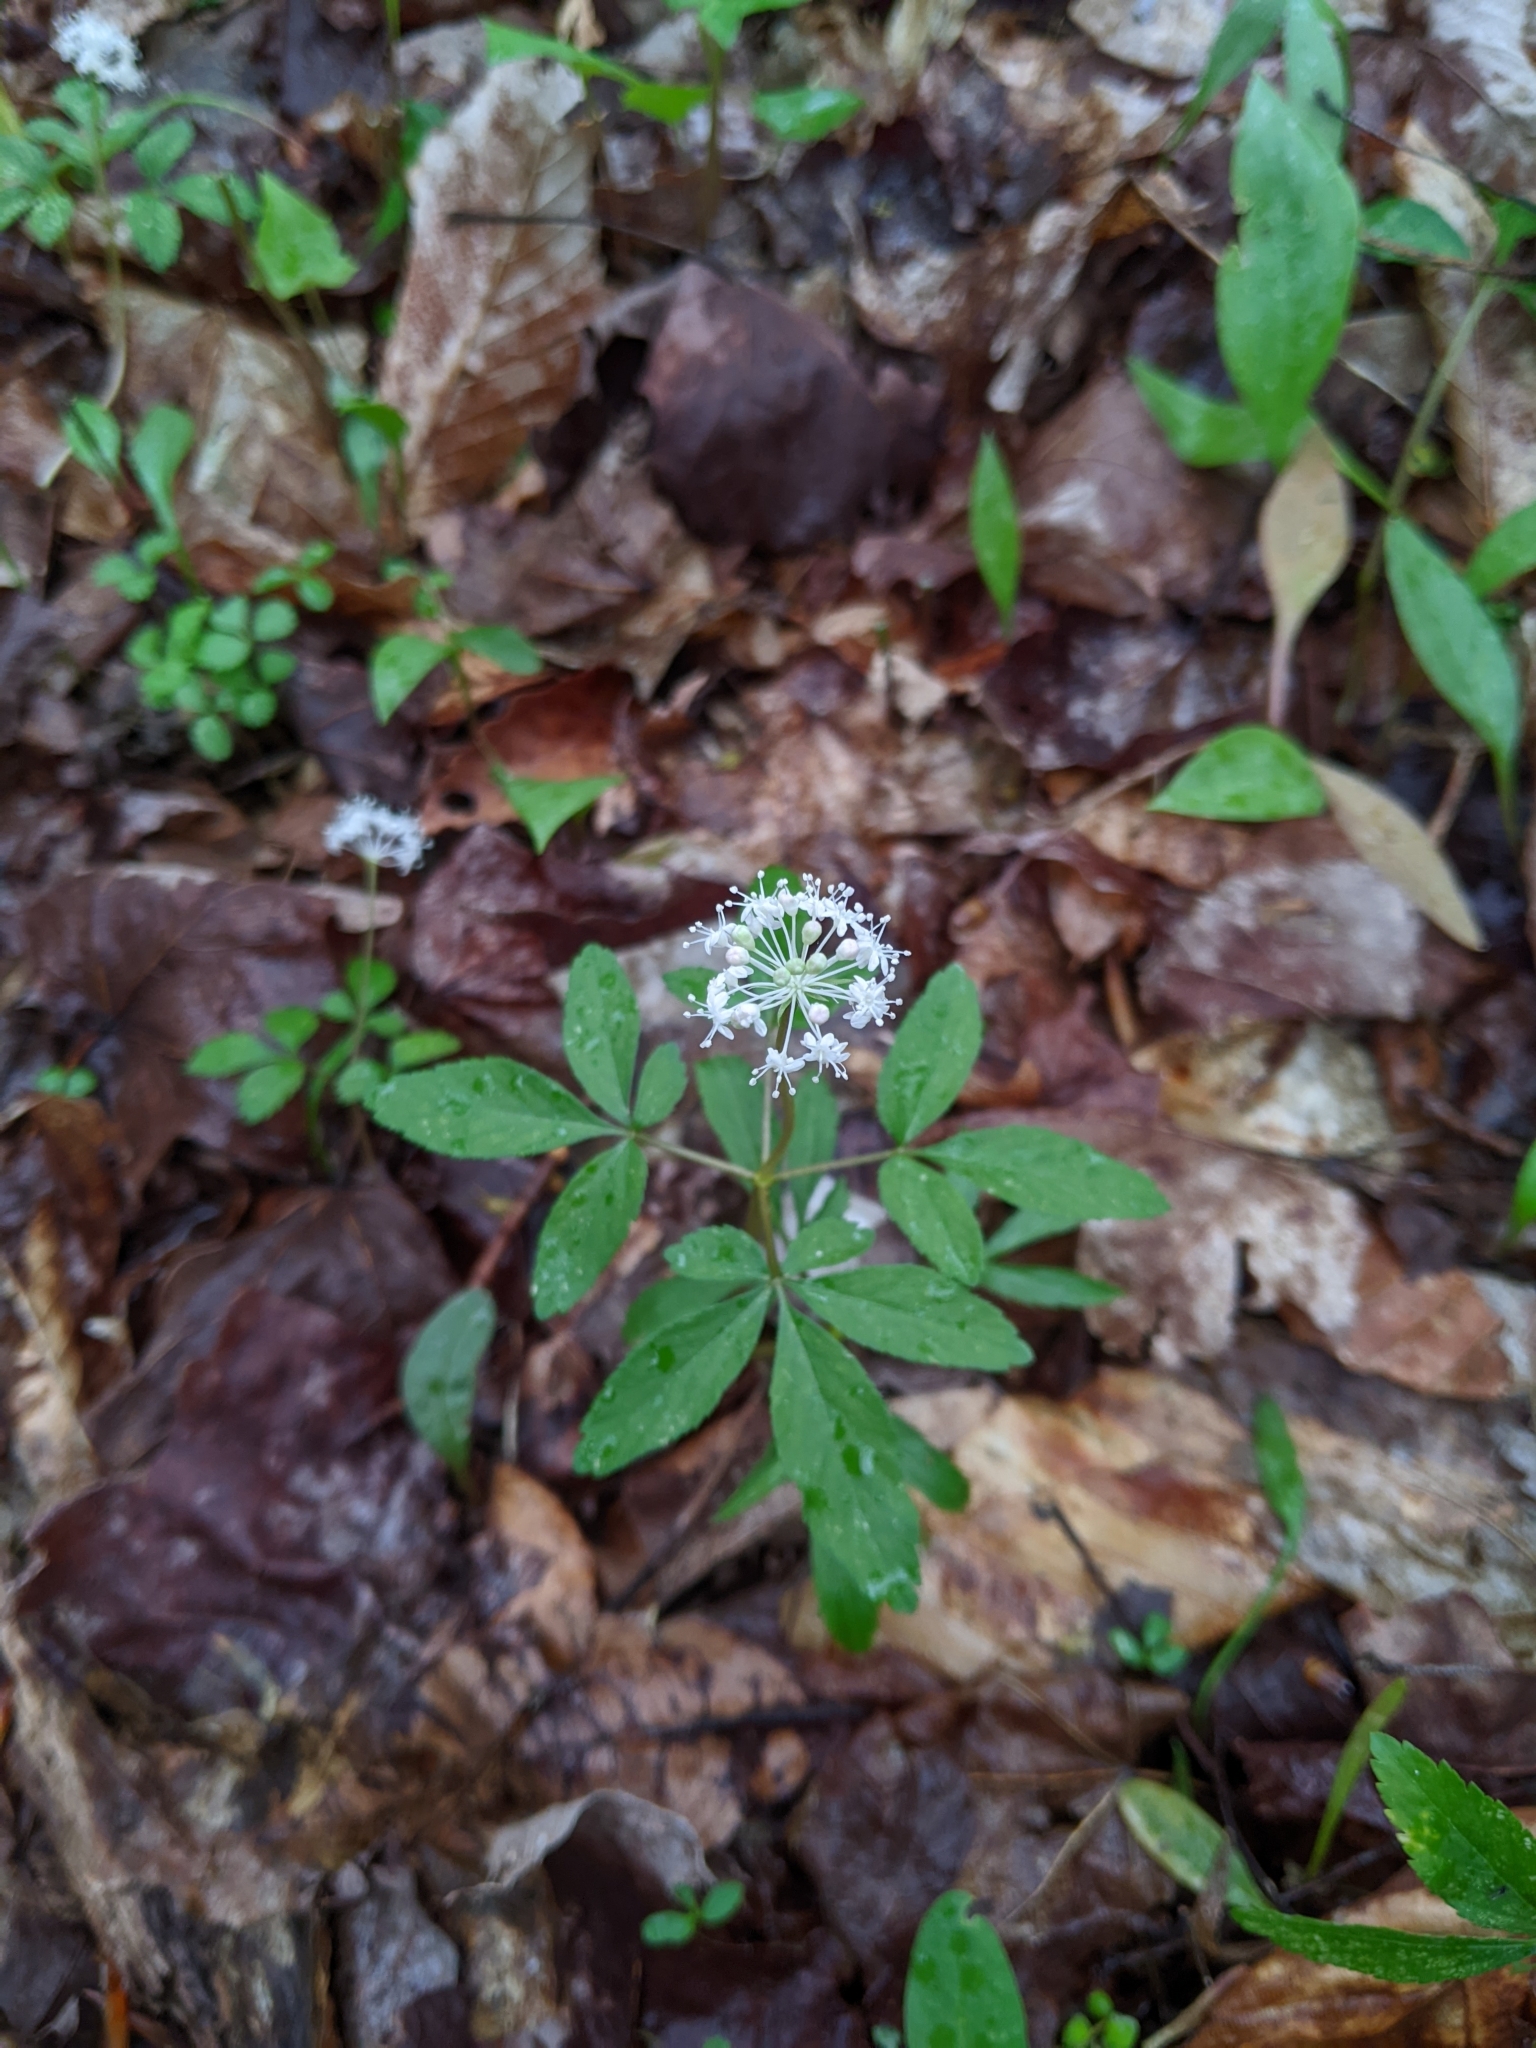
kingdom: Plantae
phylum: Tracheophyta
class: Magnoliopsida
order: Apiales
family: Araliaceae
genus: Panax
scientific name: Panax trifolius
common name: Dwarf ginseng
